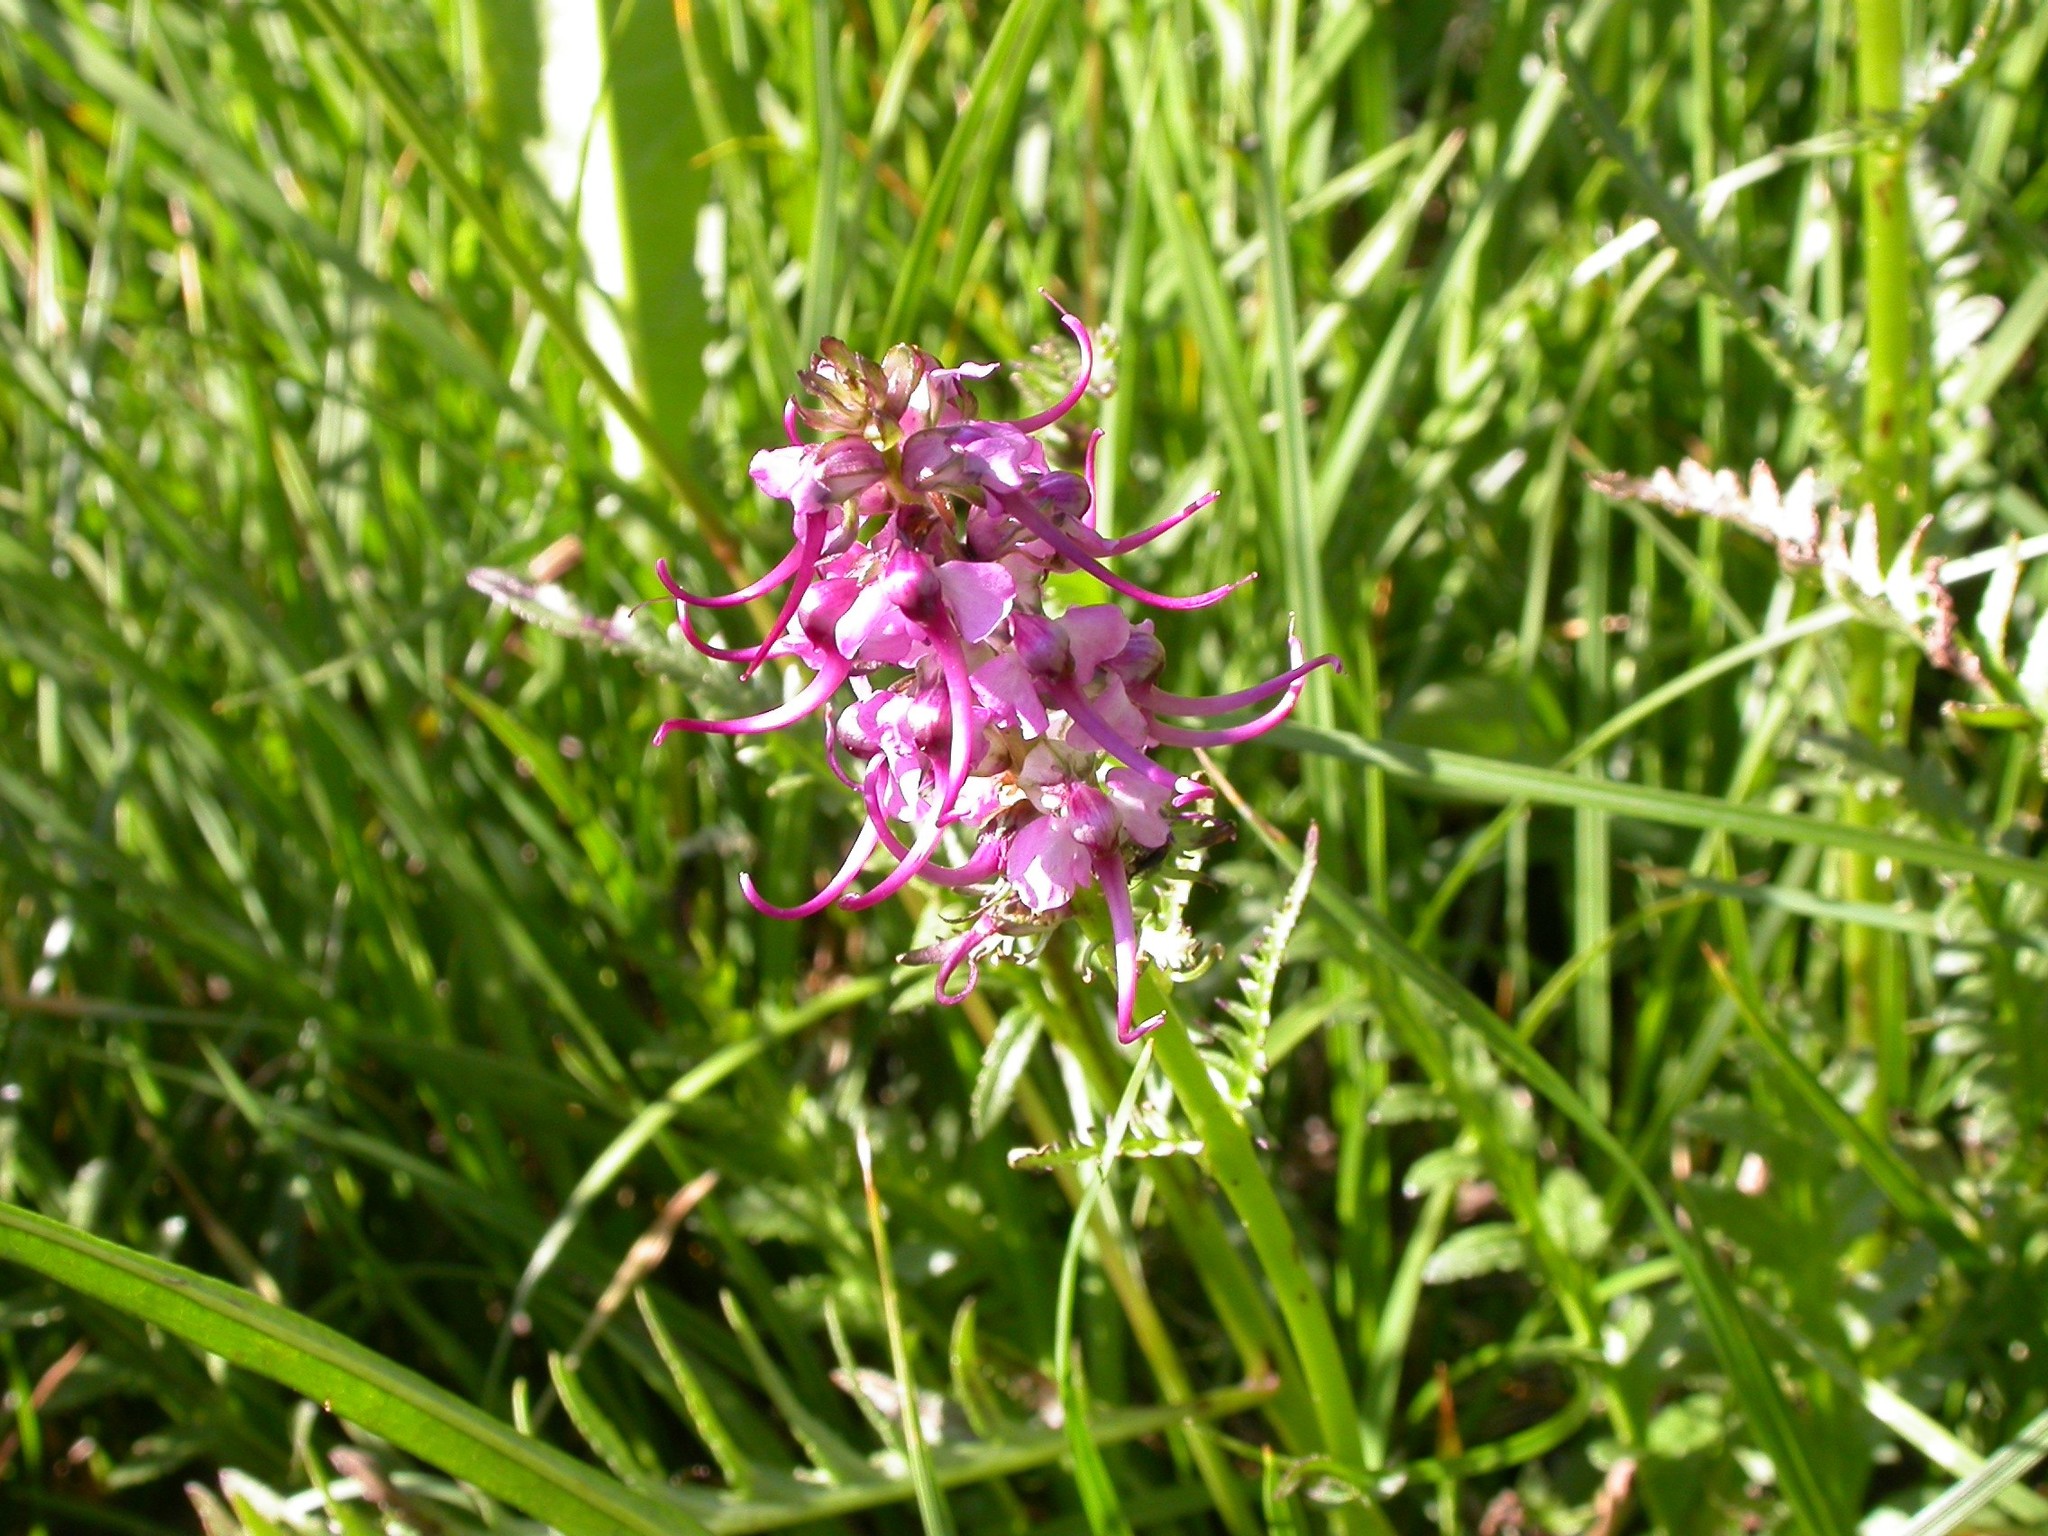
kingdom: Plantae
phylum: Tracheophyta
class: Magnoliopsida
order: Lamiales
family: Orobanchaceae
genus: Pedicularis
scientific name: Pedicularis groenlandica
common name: Elephant's-head
